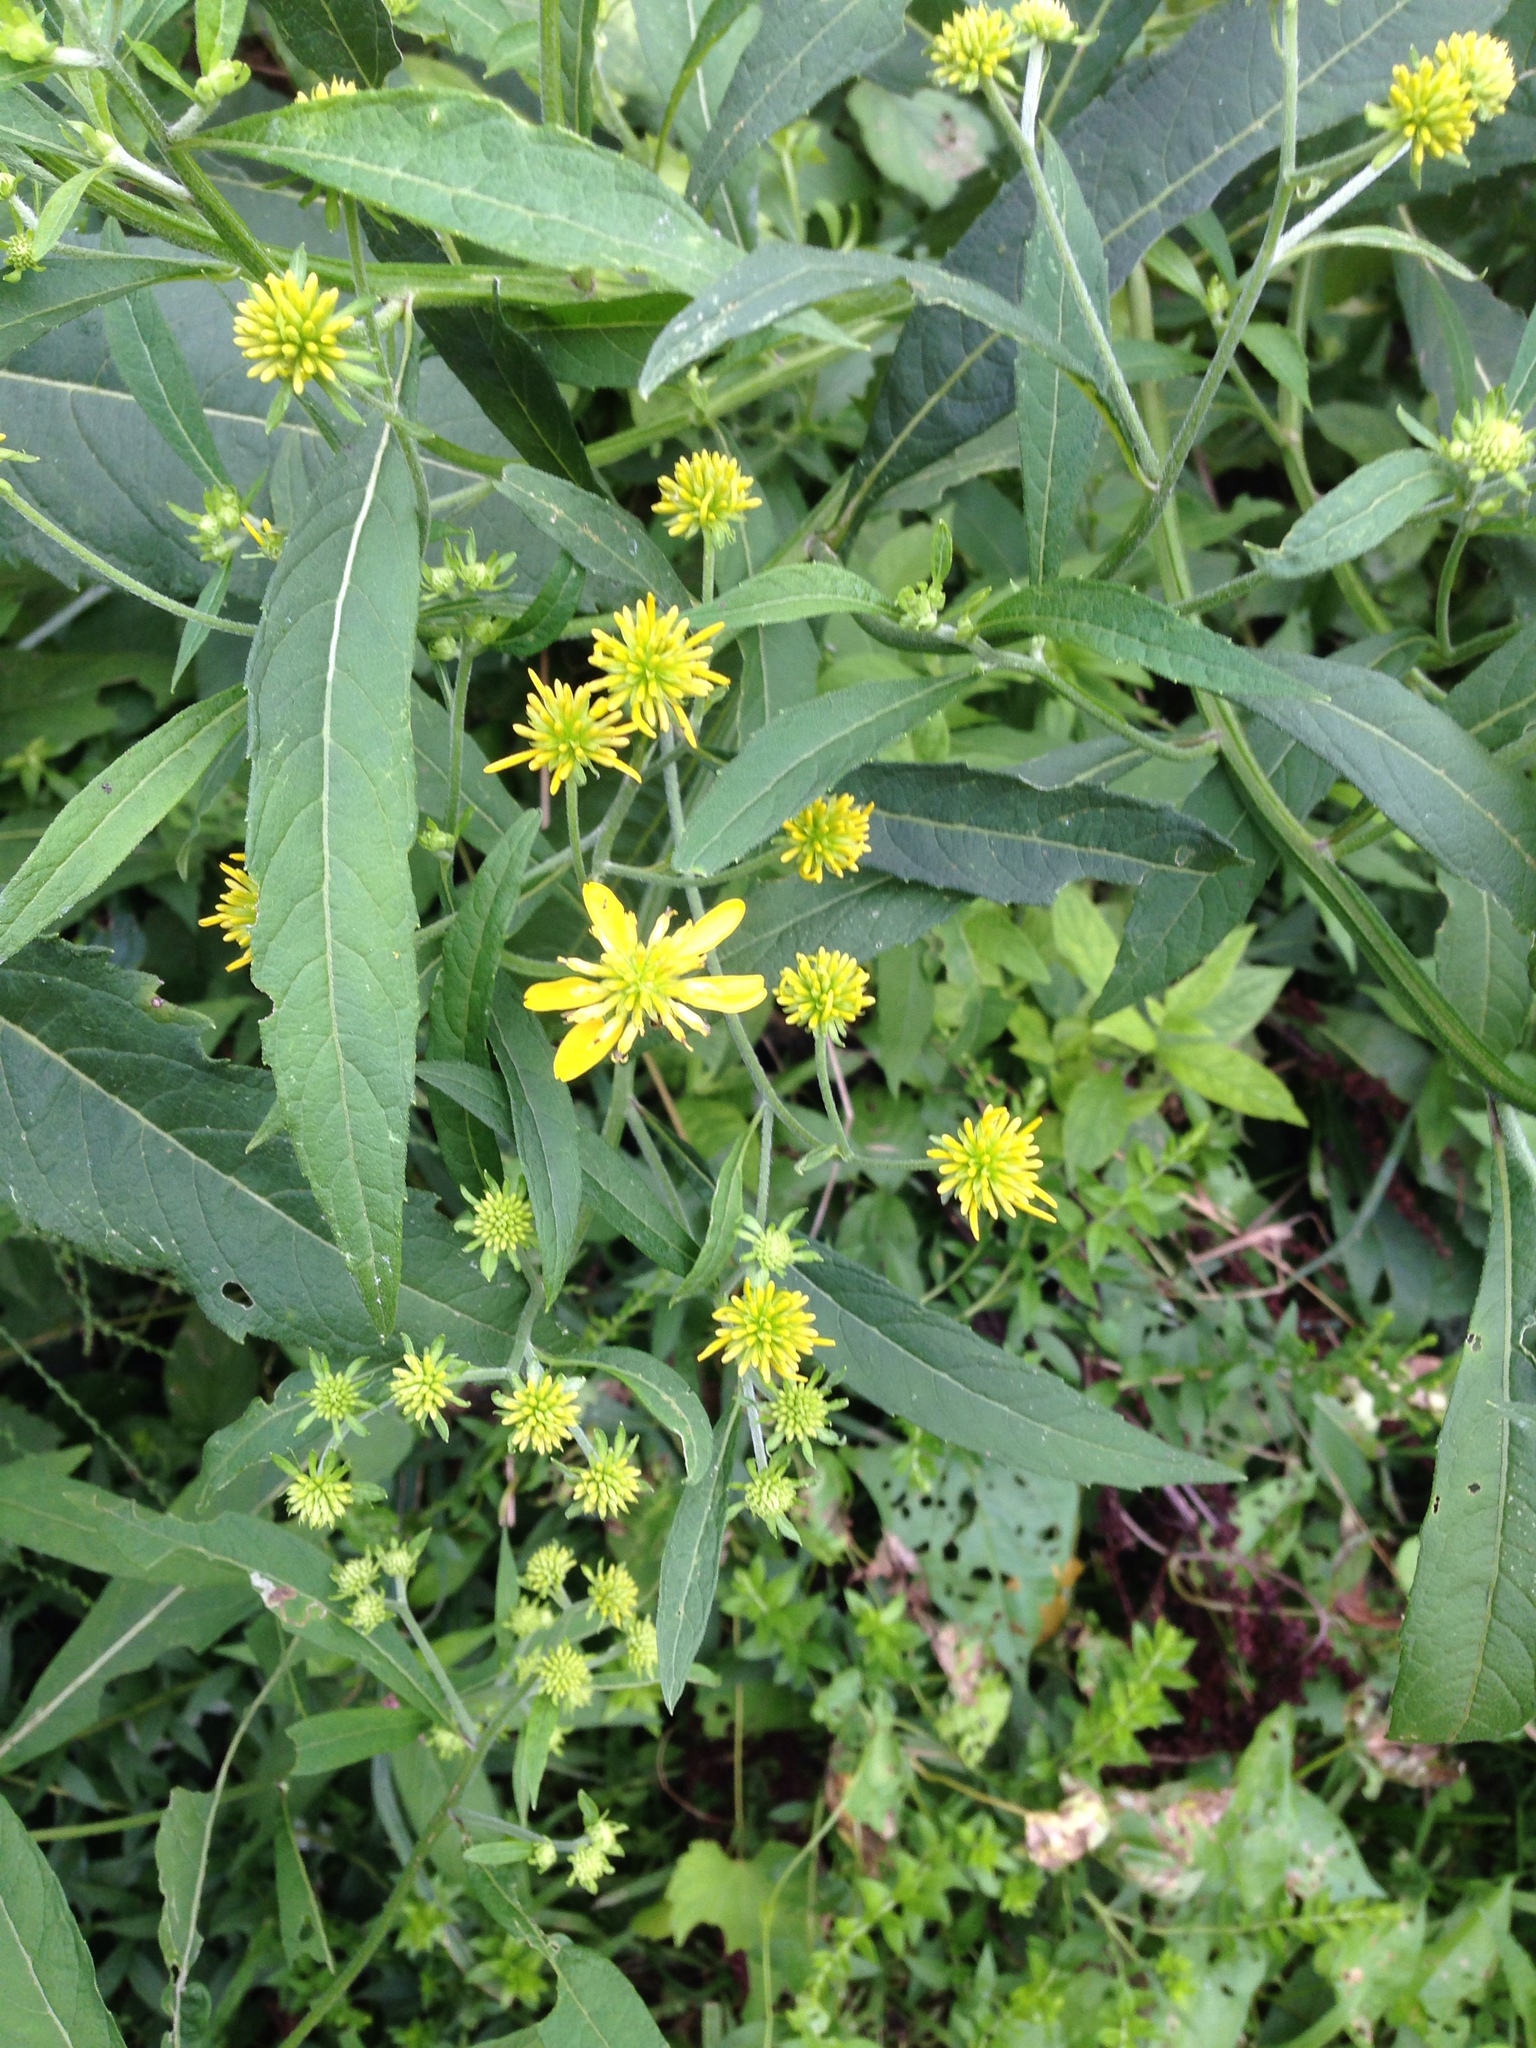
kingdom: Plantae
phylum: Tracheophyta
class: Magnoliopsida
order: Asterales
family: Asteraceae
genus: Verbesina
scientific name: Verbesina alternifolia
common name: Wingstem
